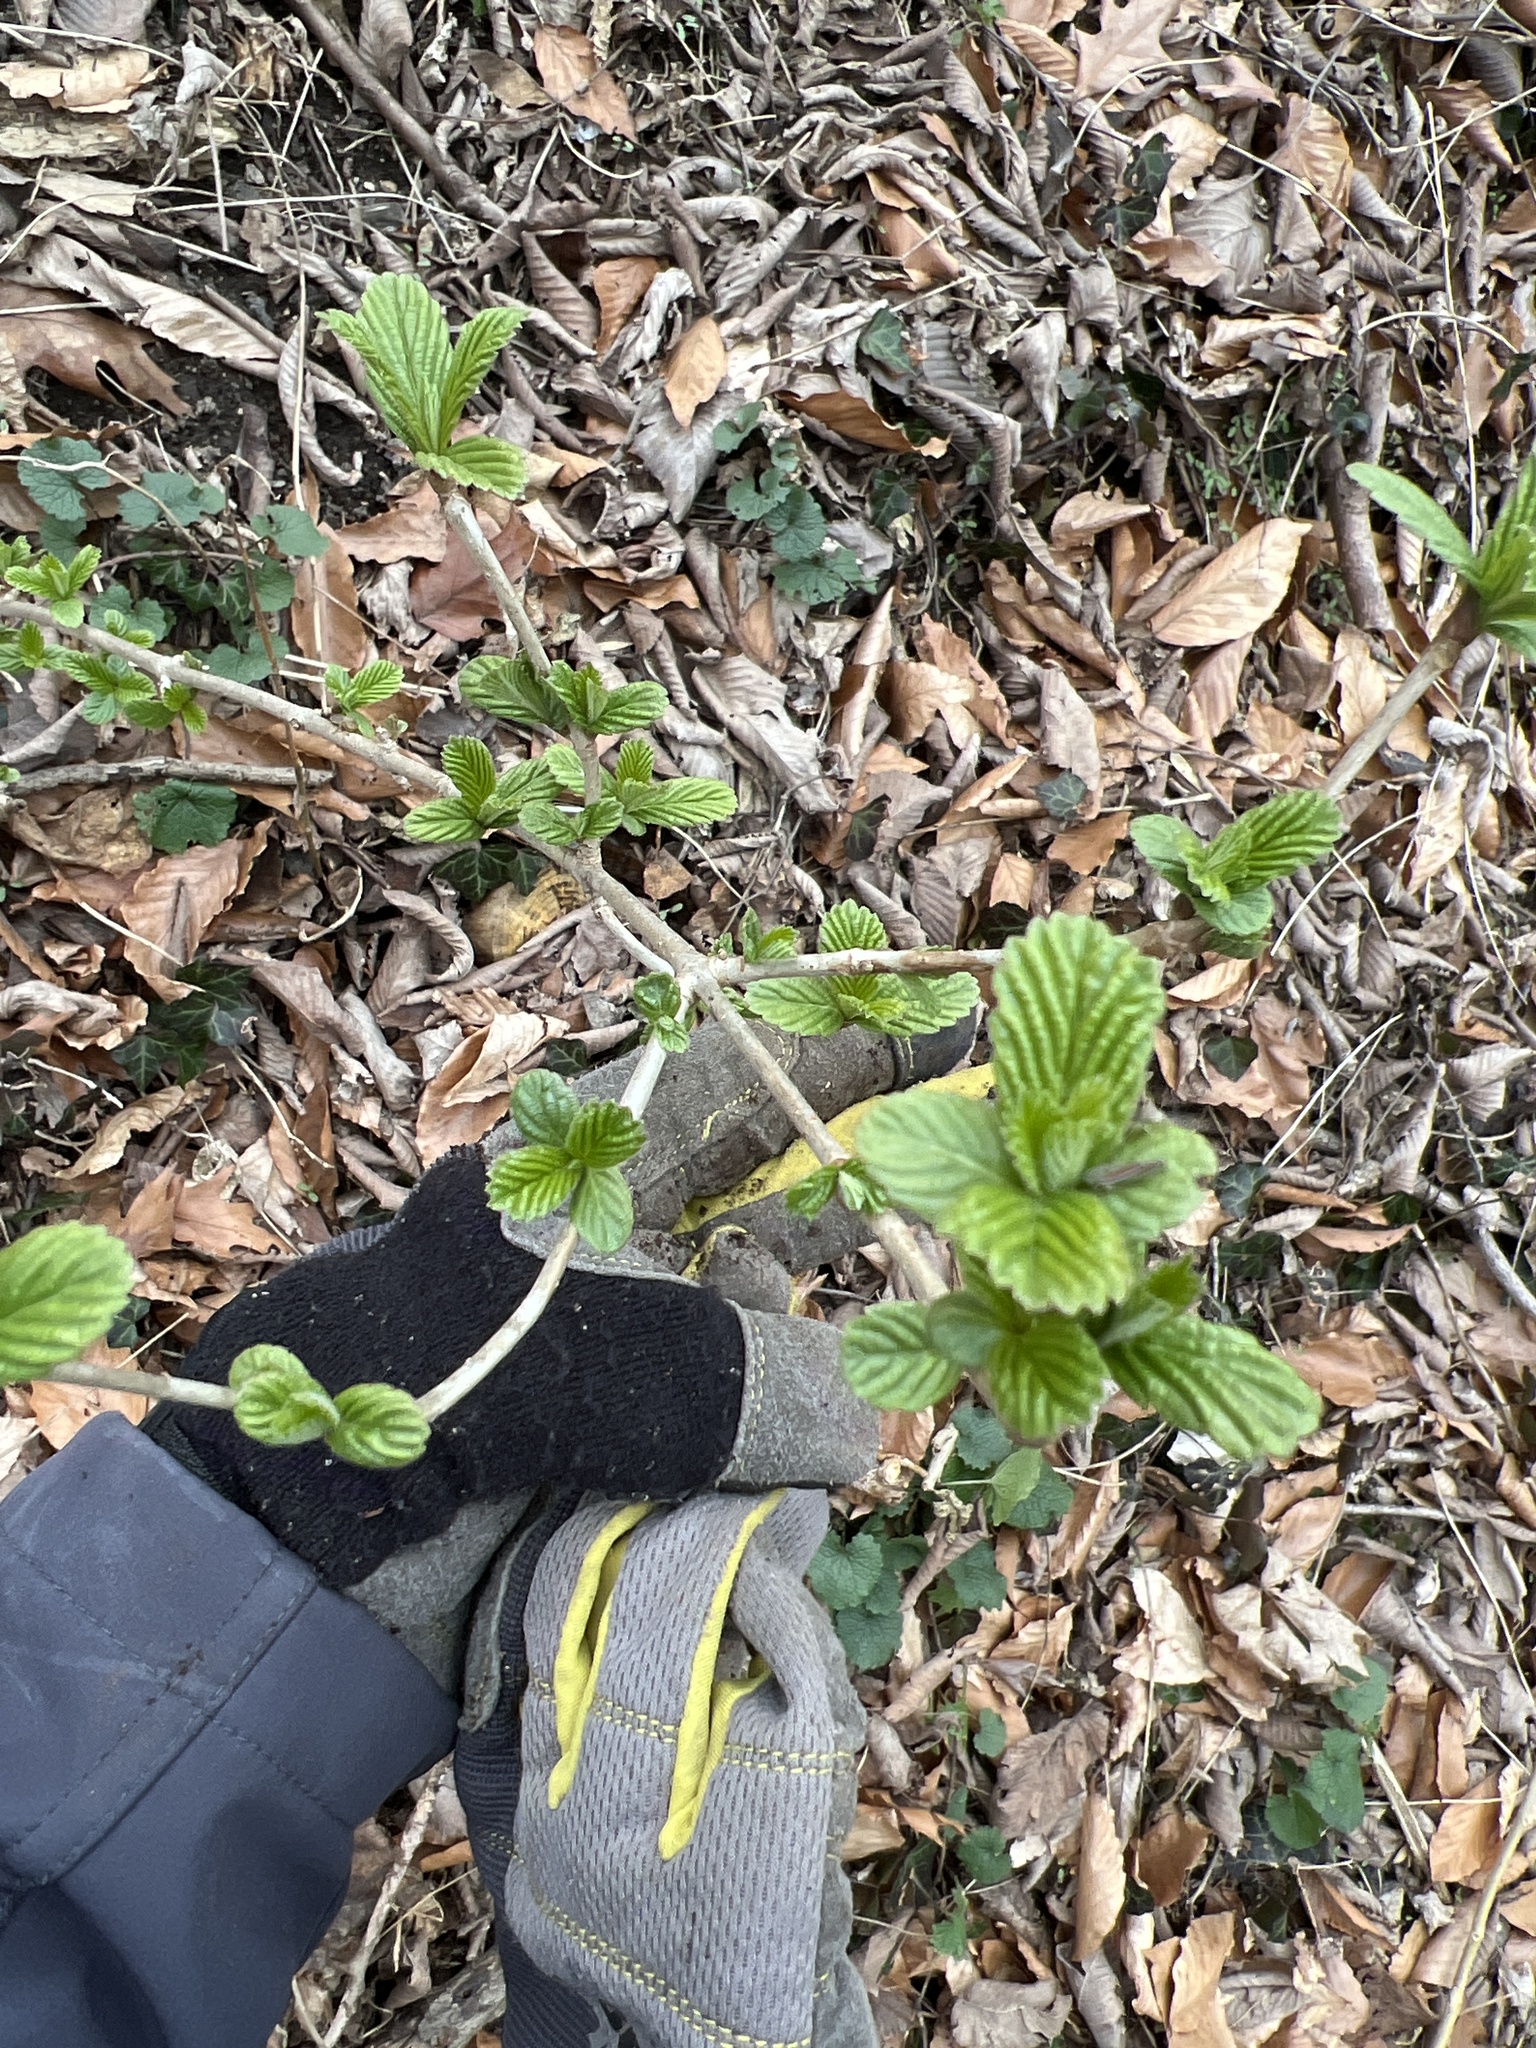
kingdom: Plantae
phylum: Tracheophyta
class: Magnoliopsida
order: Dipsacales
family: Viburnaceae
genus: Viburnum
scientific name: Viburnum sieboldii
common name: Siebold's arrowwood
